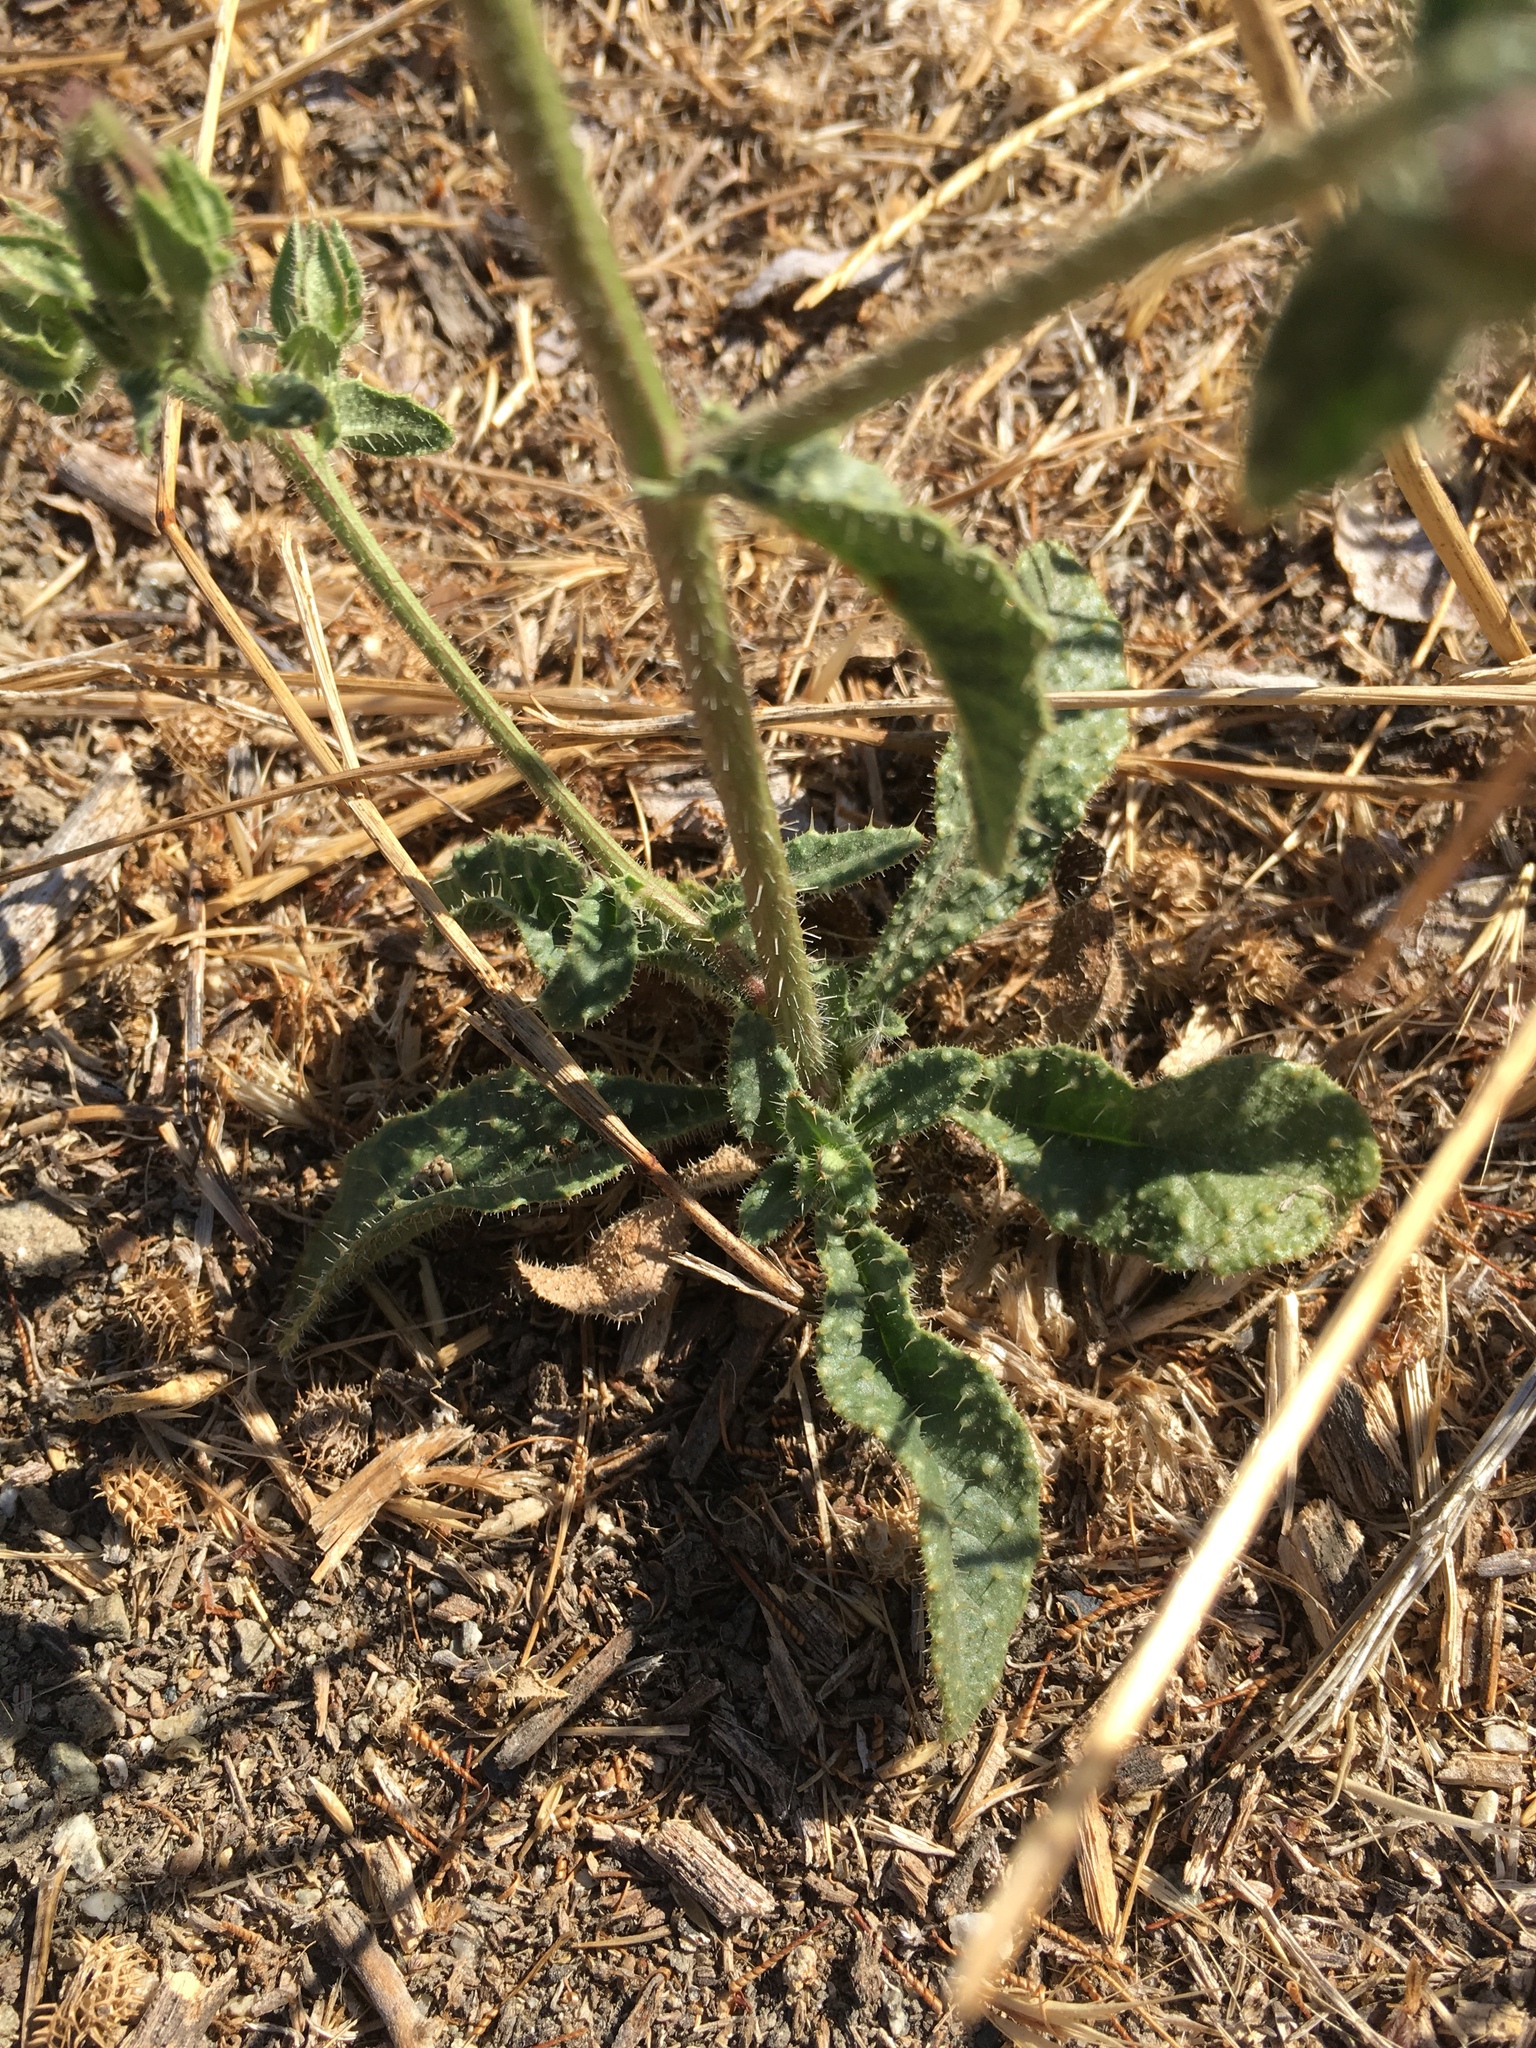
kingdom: Plantae
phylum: Tracheophyta
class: Magnoliopsida
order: Asterales
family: Asteraceae
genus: Helminthotheca
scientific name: Helminthotheca echioides
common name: Ox-tongue
